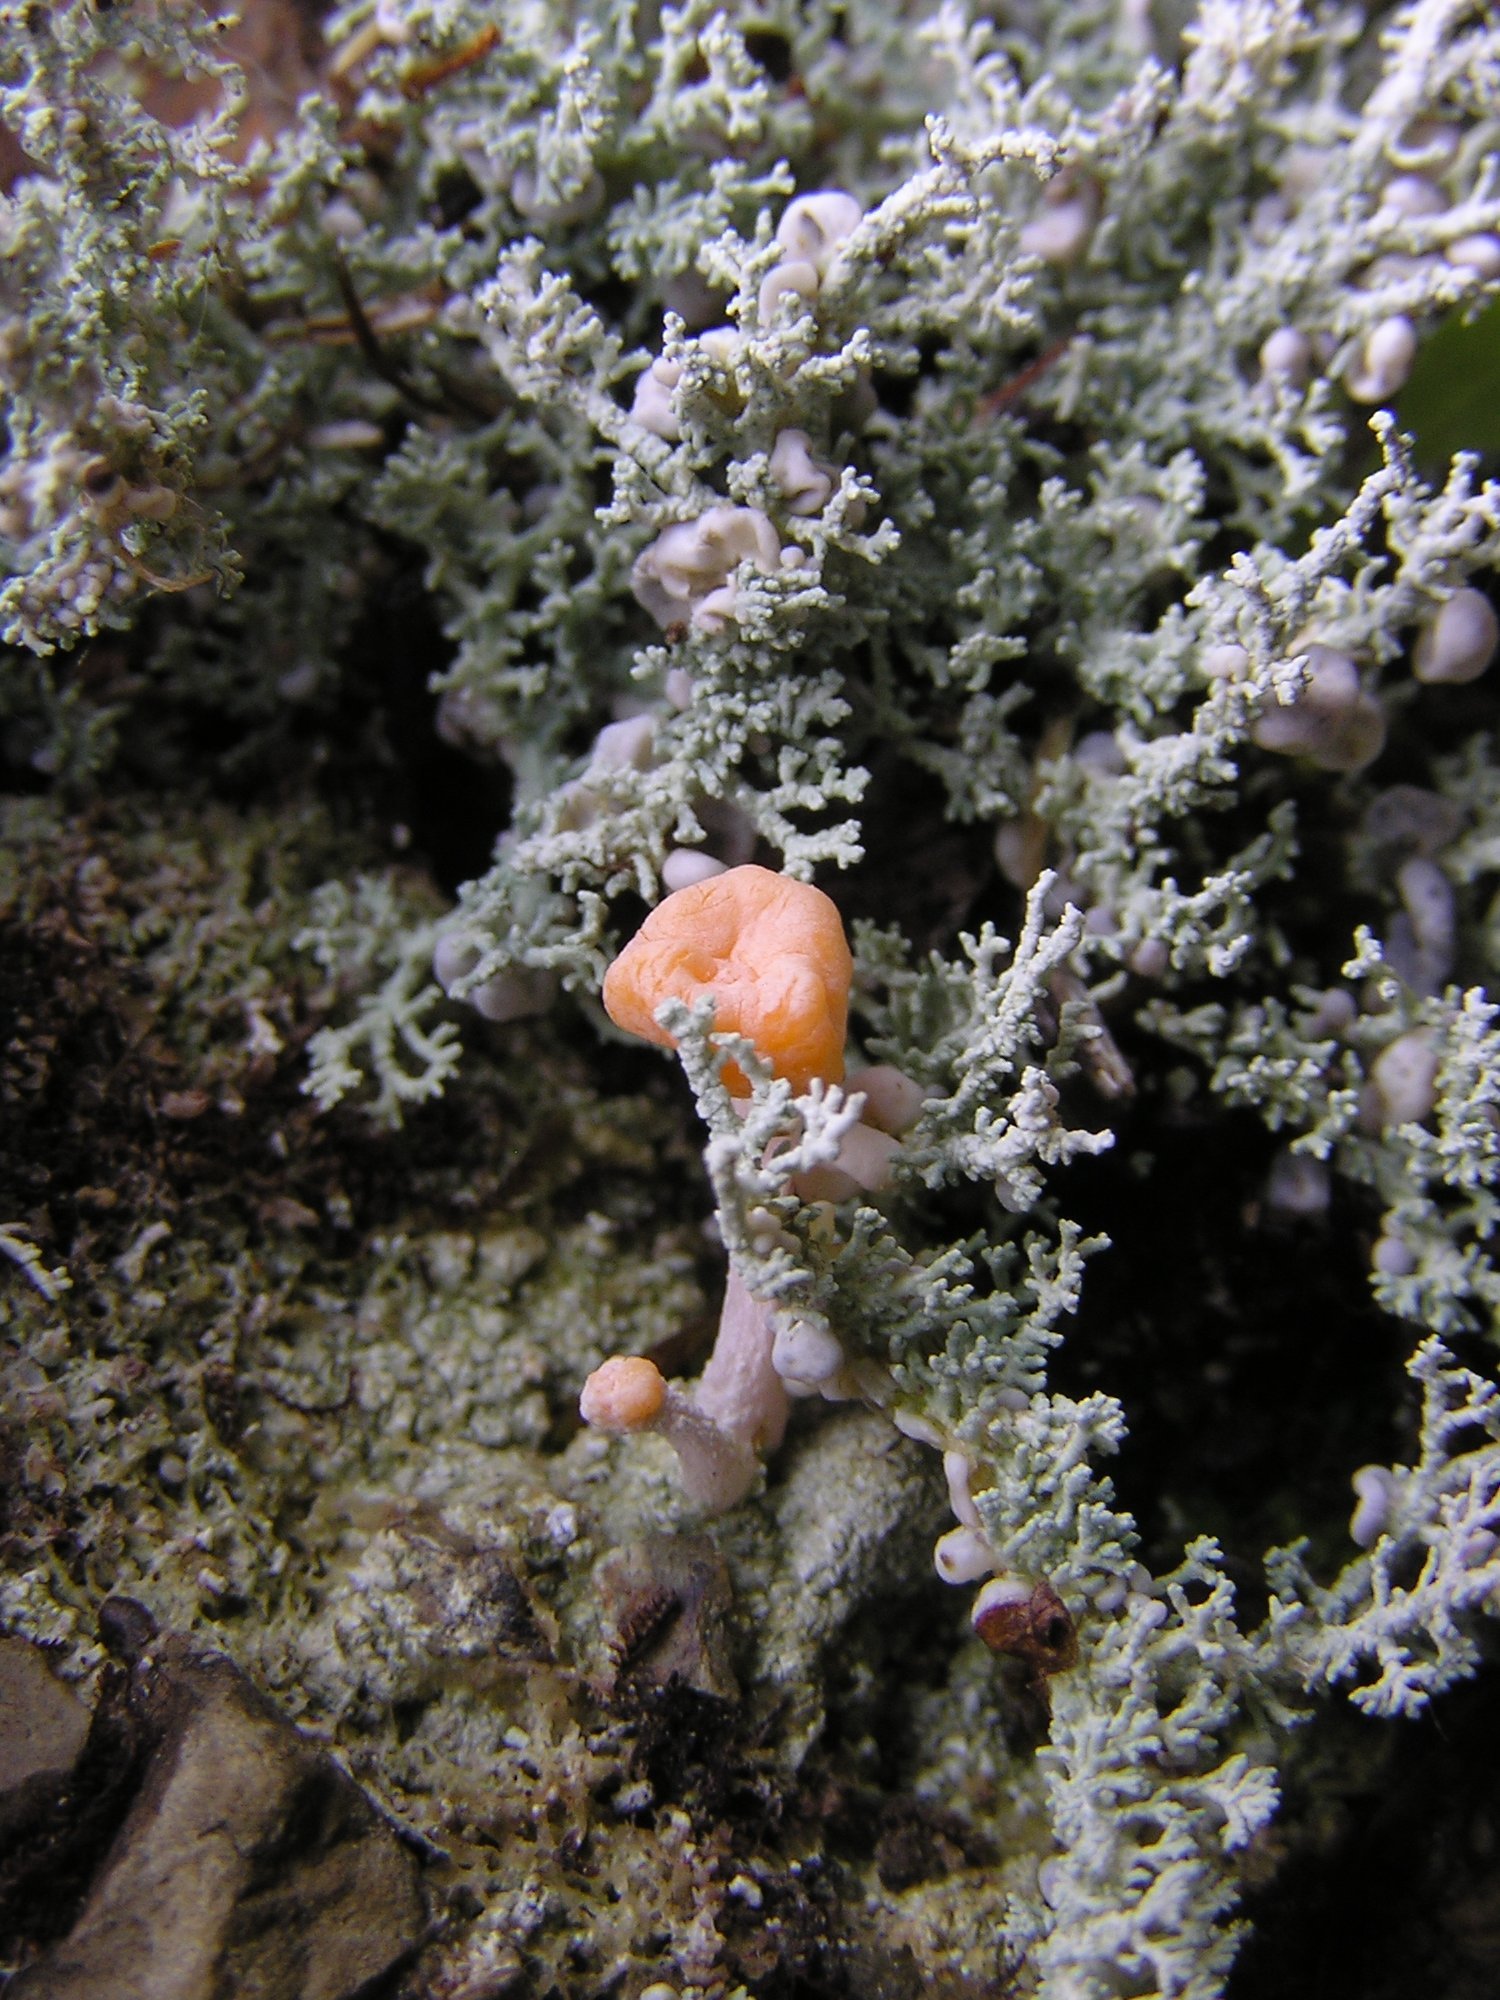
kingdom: Fungi
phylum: Ascomycota
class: Lecanoromycetes
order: Pertusariales
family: Icmadophilaceae
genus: Dibaeis
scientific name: Dibaeis arcuata
